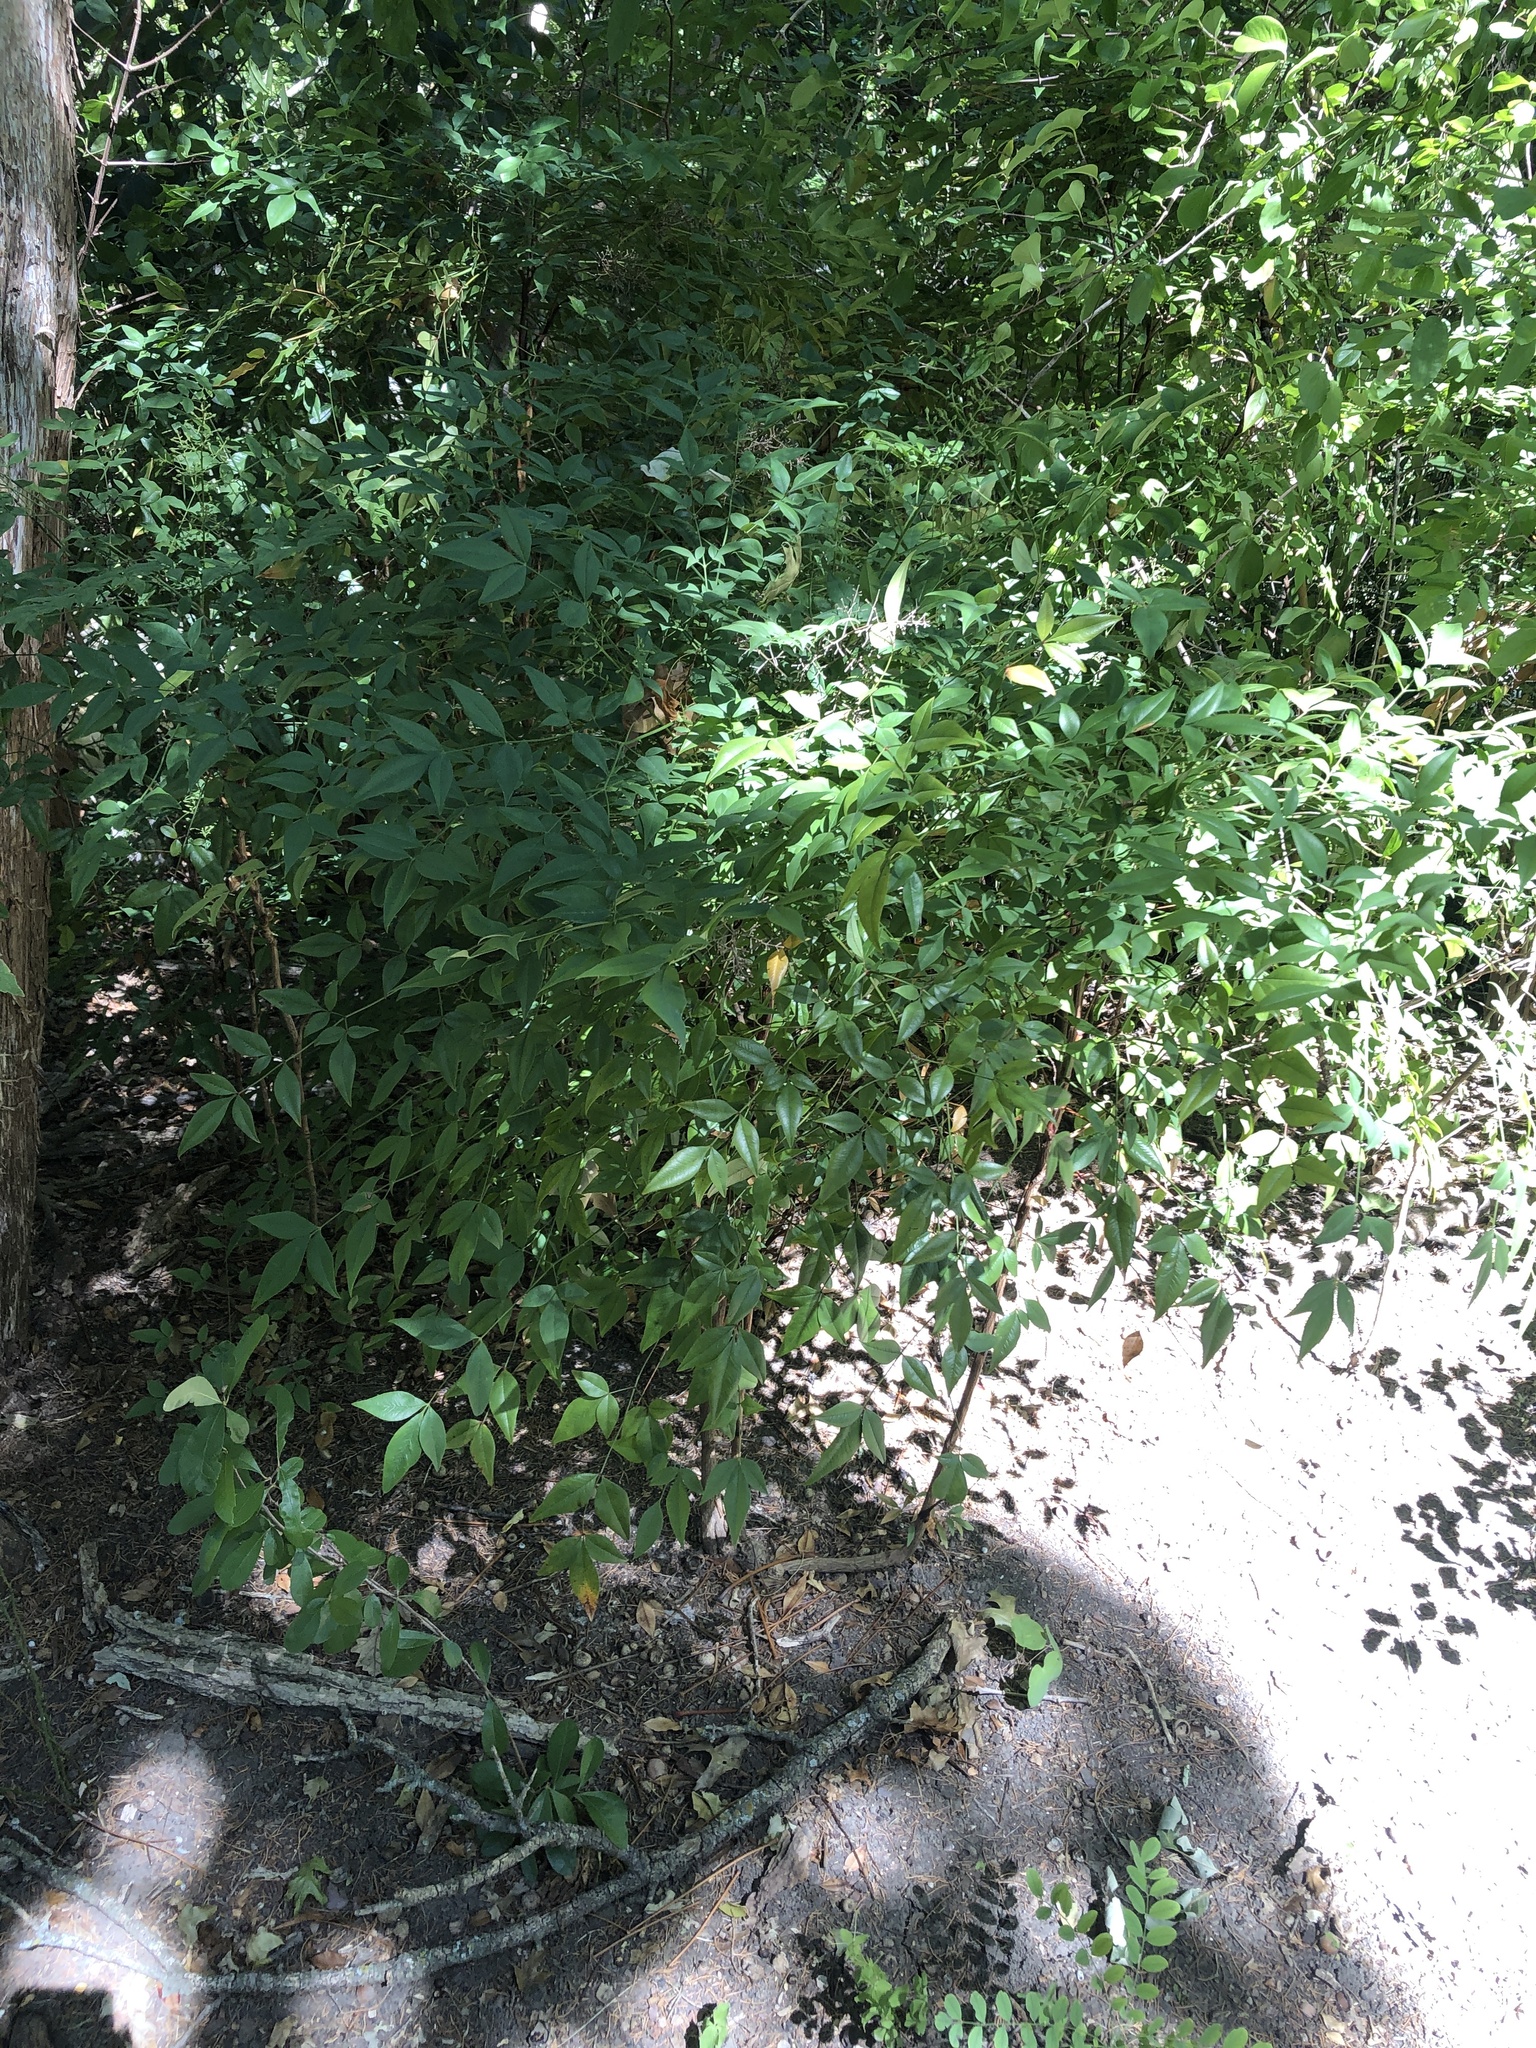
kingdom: Plantae
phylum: Tracheophyta
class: Magnoliopsida
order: Ranunculales
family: Berberidaceae
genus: Nandina
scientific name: Nandina domestica
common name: Sacred bamboo
